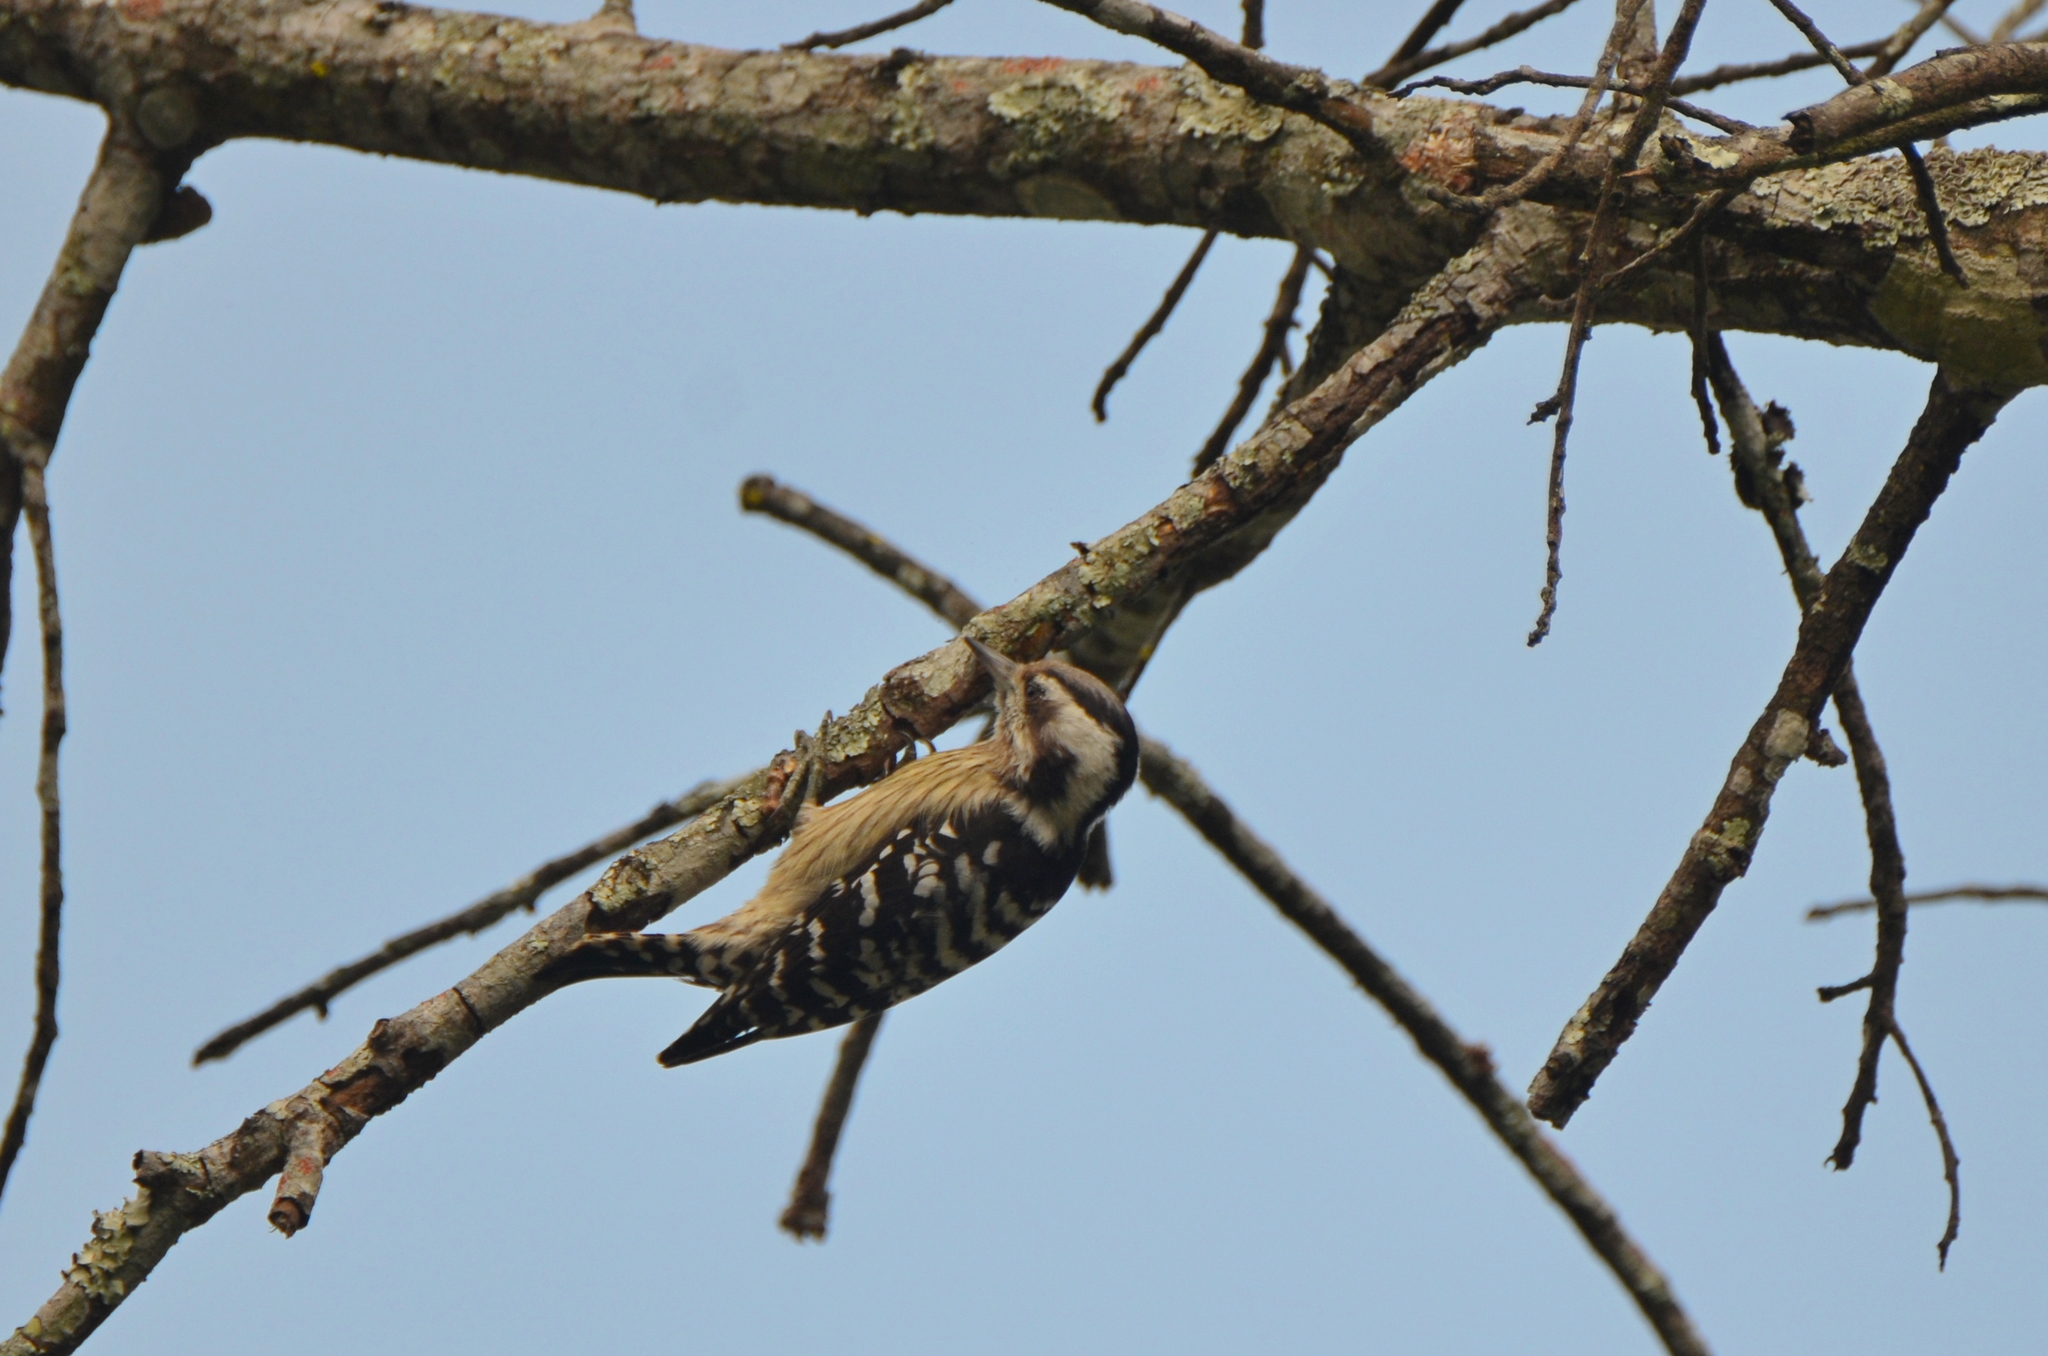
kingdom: Animalia
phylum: Chordata
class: Aves
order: Piciformes
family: Picidae
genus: Yungipicus
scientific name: Yungipicus canicapillus
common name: Grey-capped pygmy woodpecker
